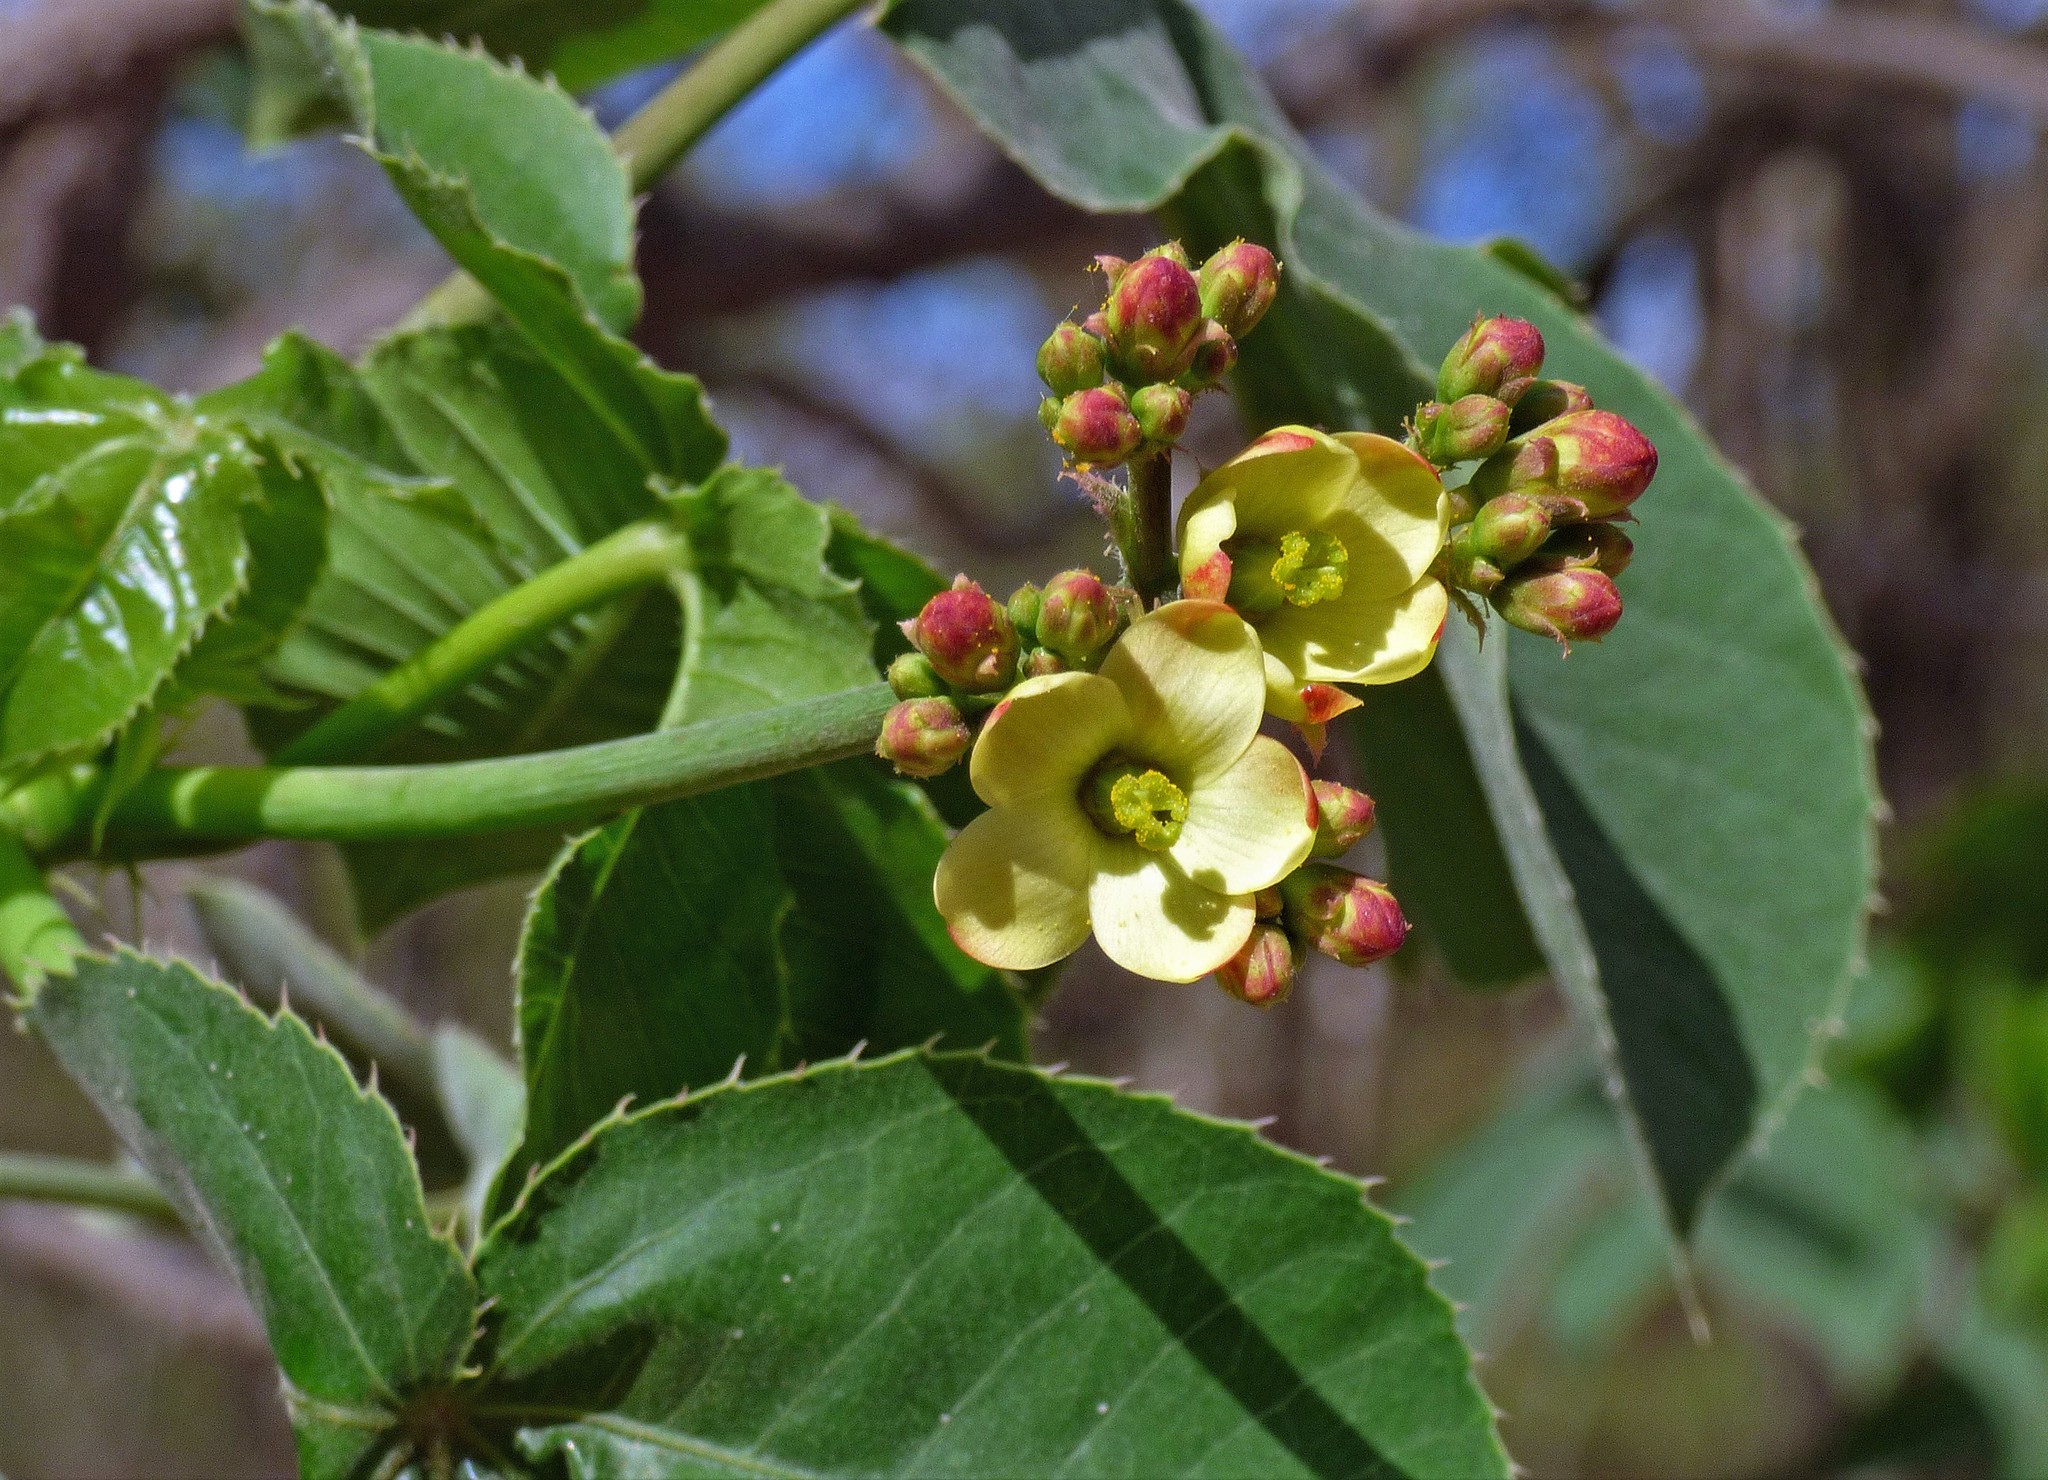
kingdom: Plantae
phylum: Tracheophyta
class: Magnoliopsida
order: Malpighiales
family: Euphorbiaceae
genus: Jatropha
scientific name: Jatropha macrocarpa
